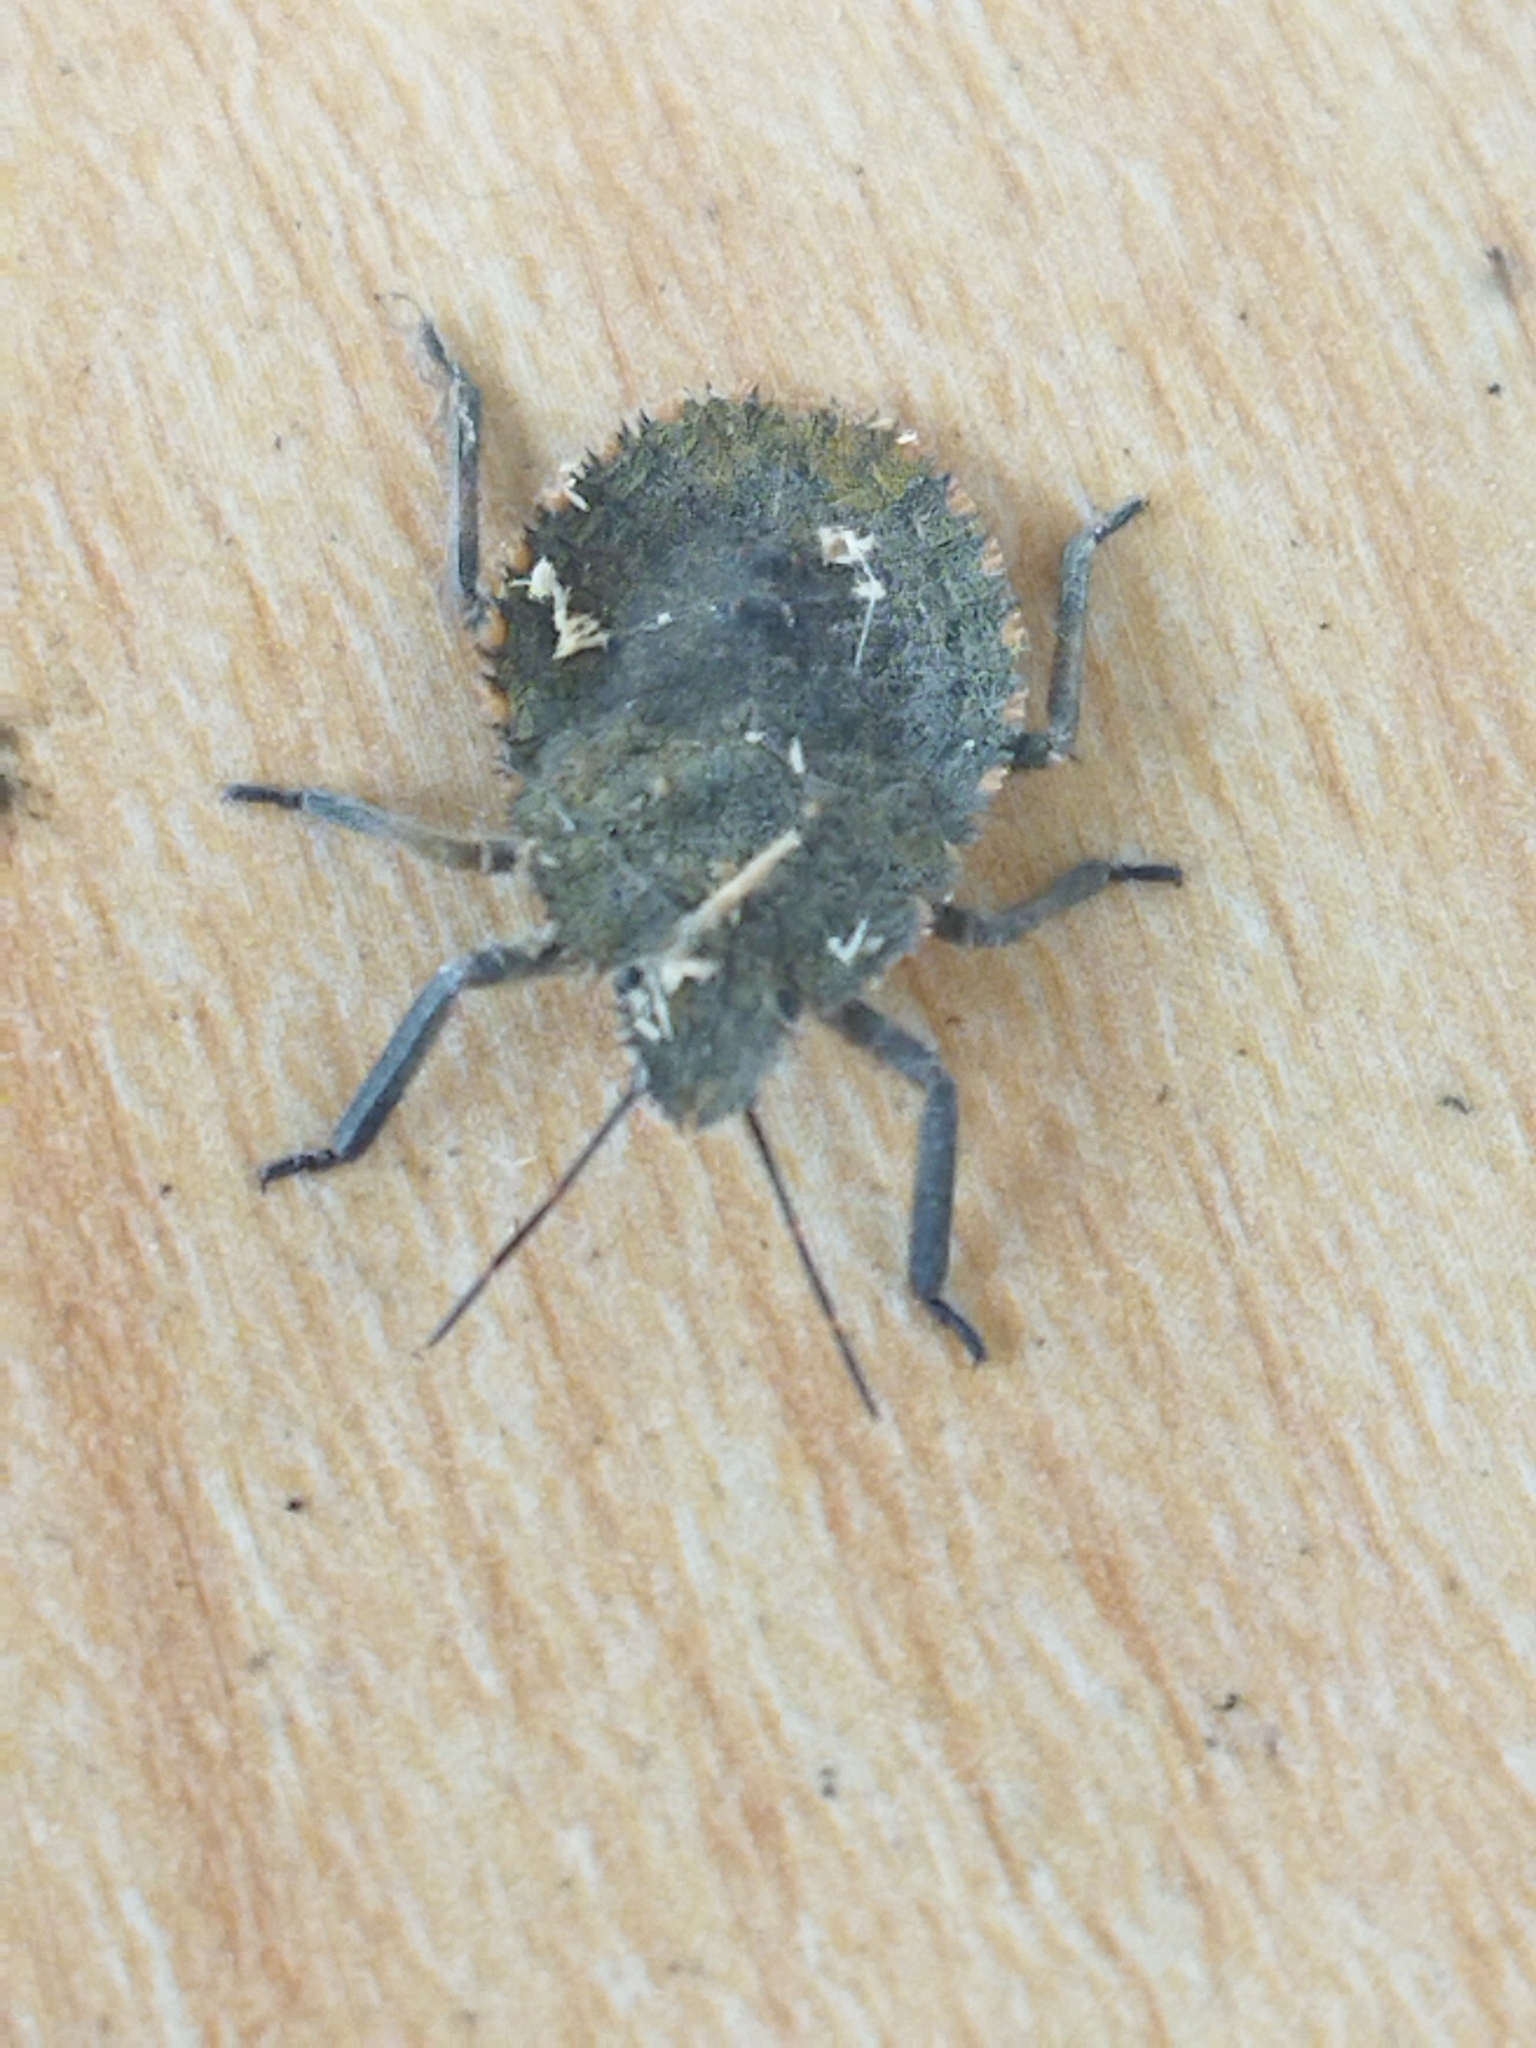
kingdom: Animalia
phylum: Arthropoda
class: Insecta
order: Hemiptera
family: Pentatomidae
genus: Mustha
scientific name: Mustha spinosula
